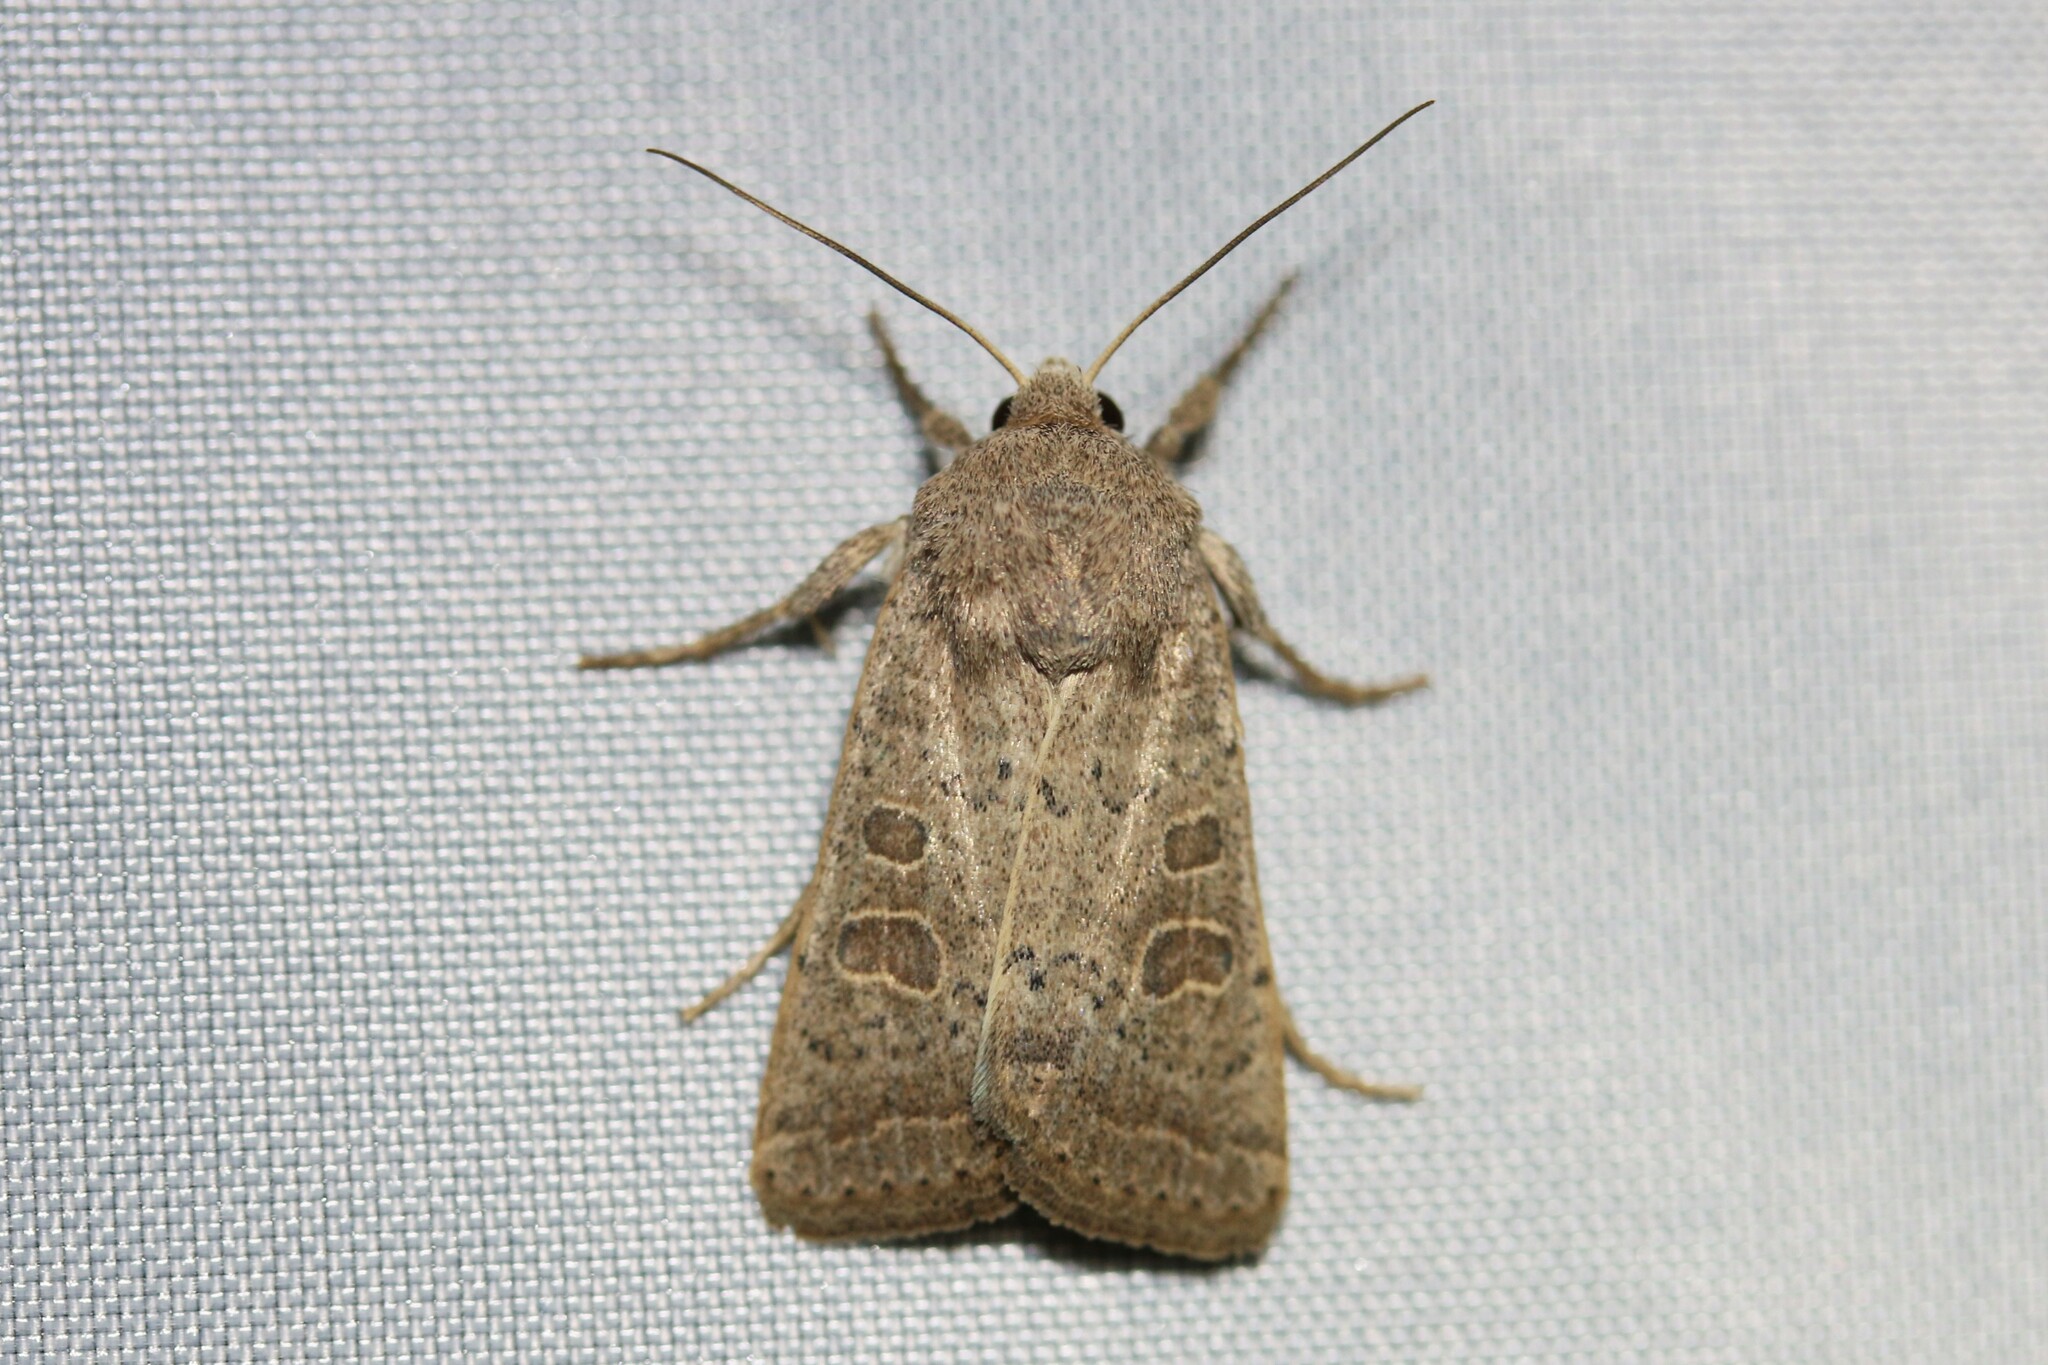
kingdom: Animalia
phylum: Arthropoda
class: Insecta
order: Lepidoptera
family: Noctuidae
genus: Hoplodrina
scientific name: Hoplodrina ambigua
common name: Vine's rustic
